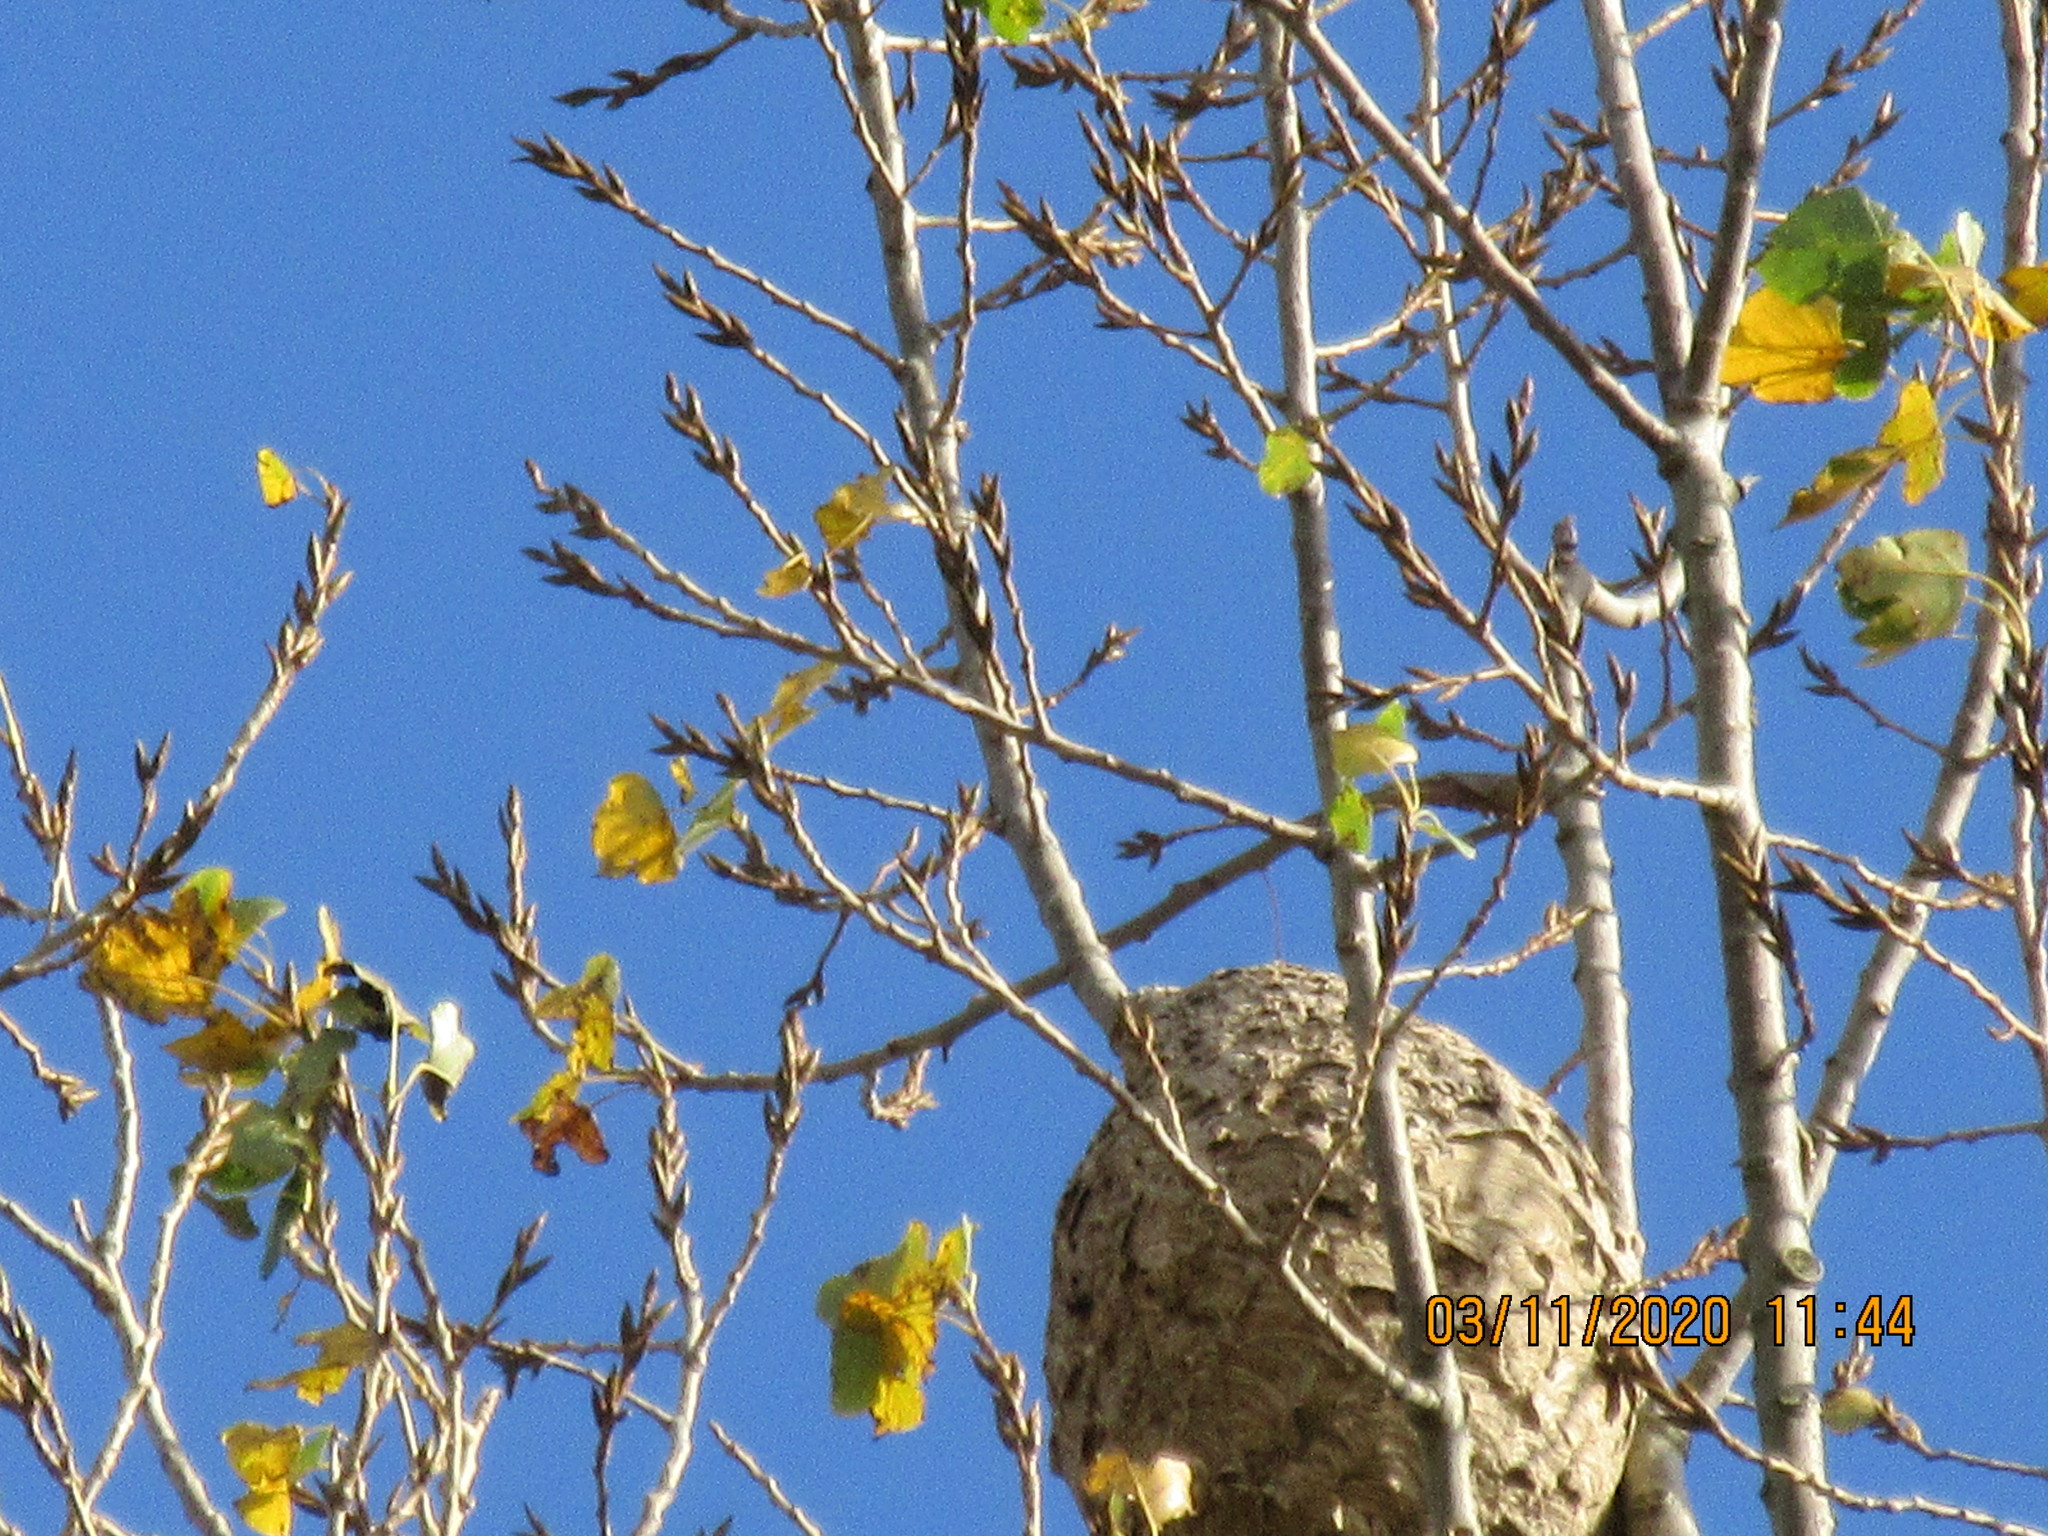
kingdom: Animalia
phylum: Arthropoda
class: Insecta
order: Hymenoptera
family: Vespidae
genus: Vespa
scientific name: Vespa velutina
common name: Asian hornet
